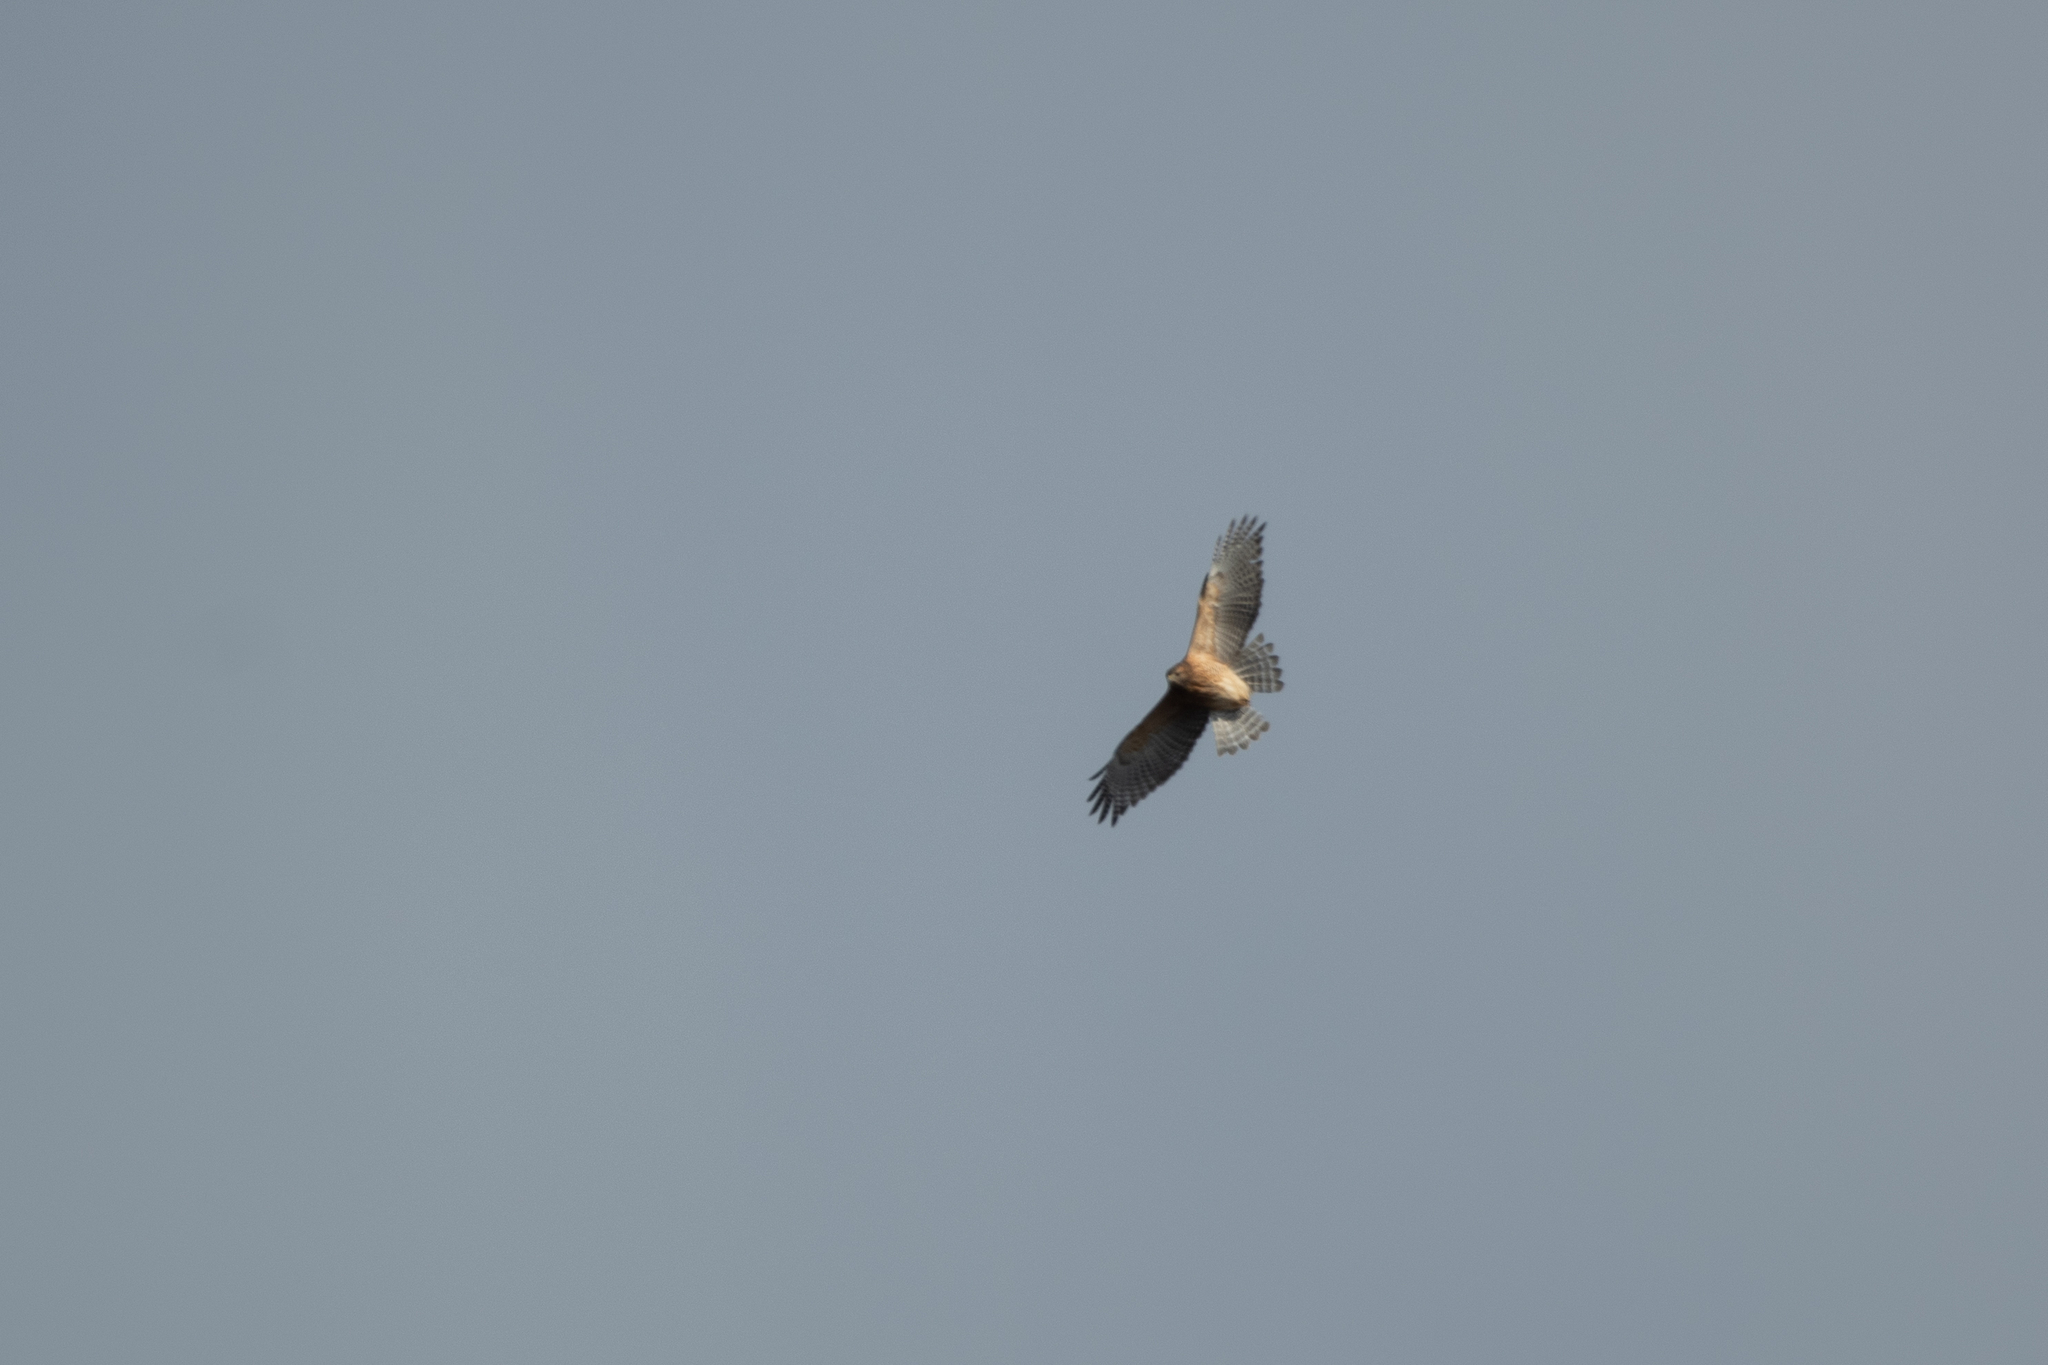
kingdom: Animalia
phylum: Chordata
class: Aves
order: Accipitriformes
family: Accipitridae
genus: Buteo
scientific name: Buteo lineatus
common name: Red-shouldered hawk
